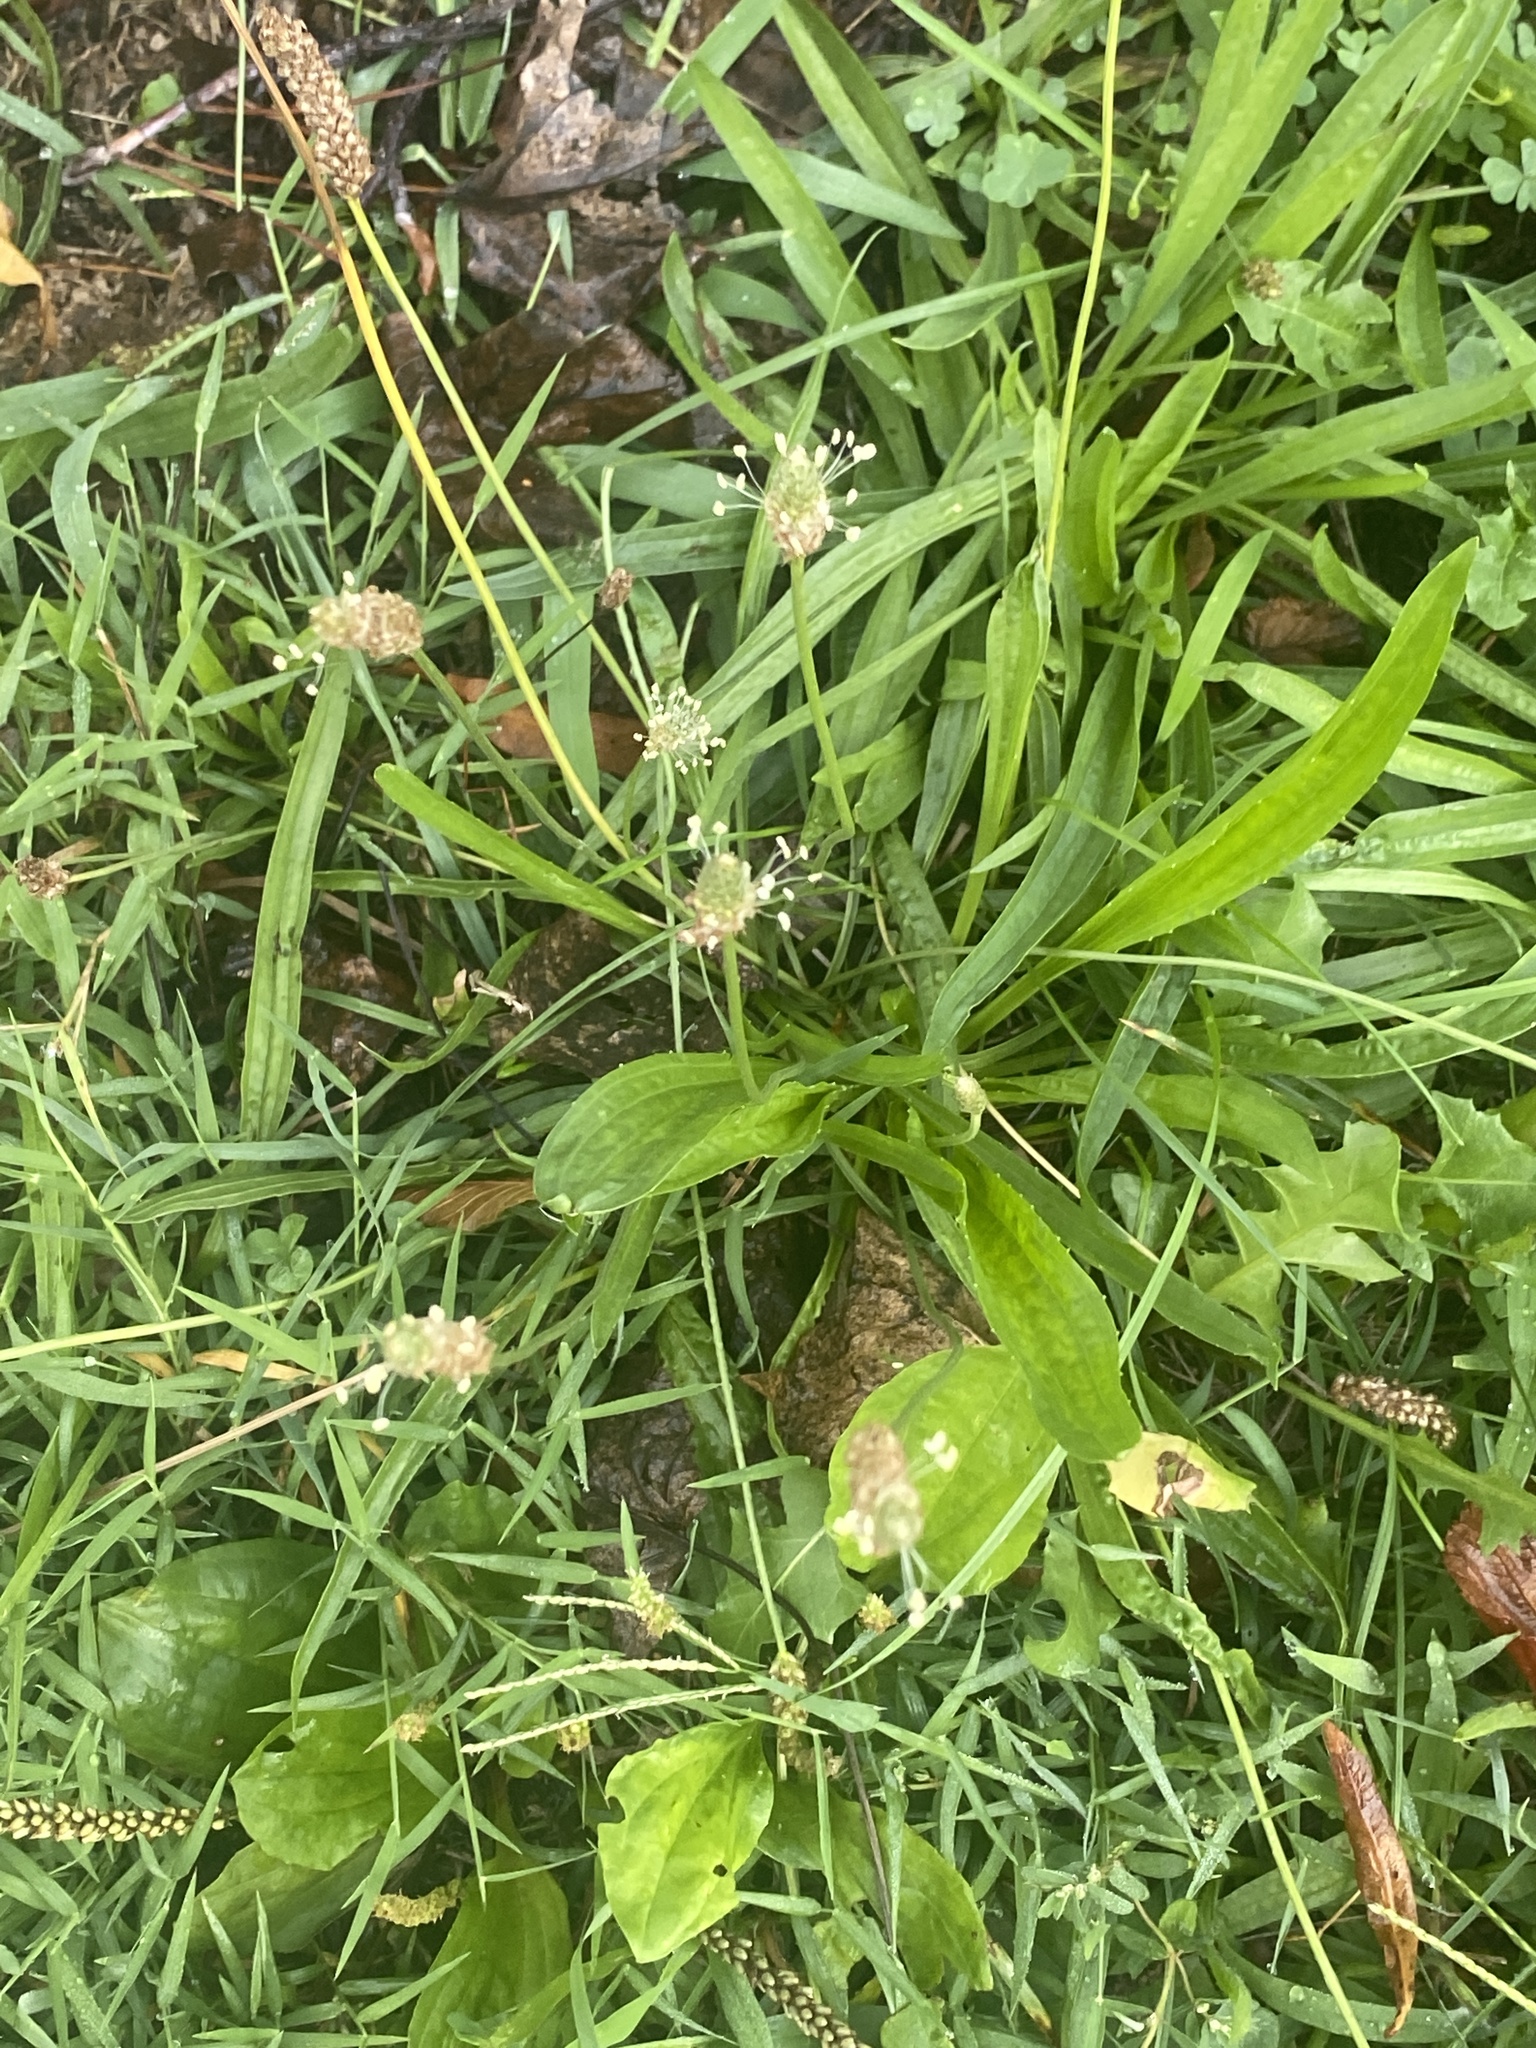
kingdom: Plantae
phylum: Tracheophyta
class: Magnoliopsida
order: Lamiales
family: Plantaginaceae
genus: Plantago
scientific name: Plantago lanceolata
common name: Ribwort plantain
